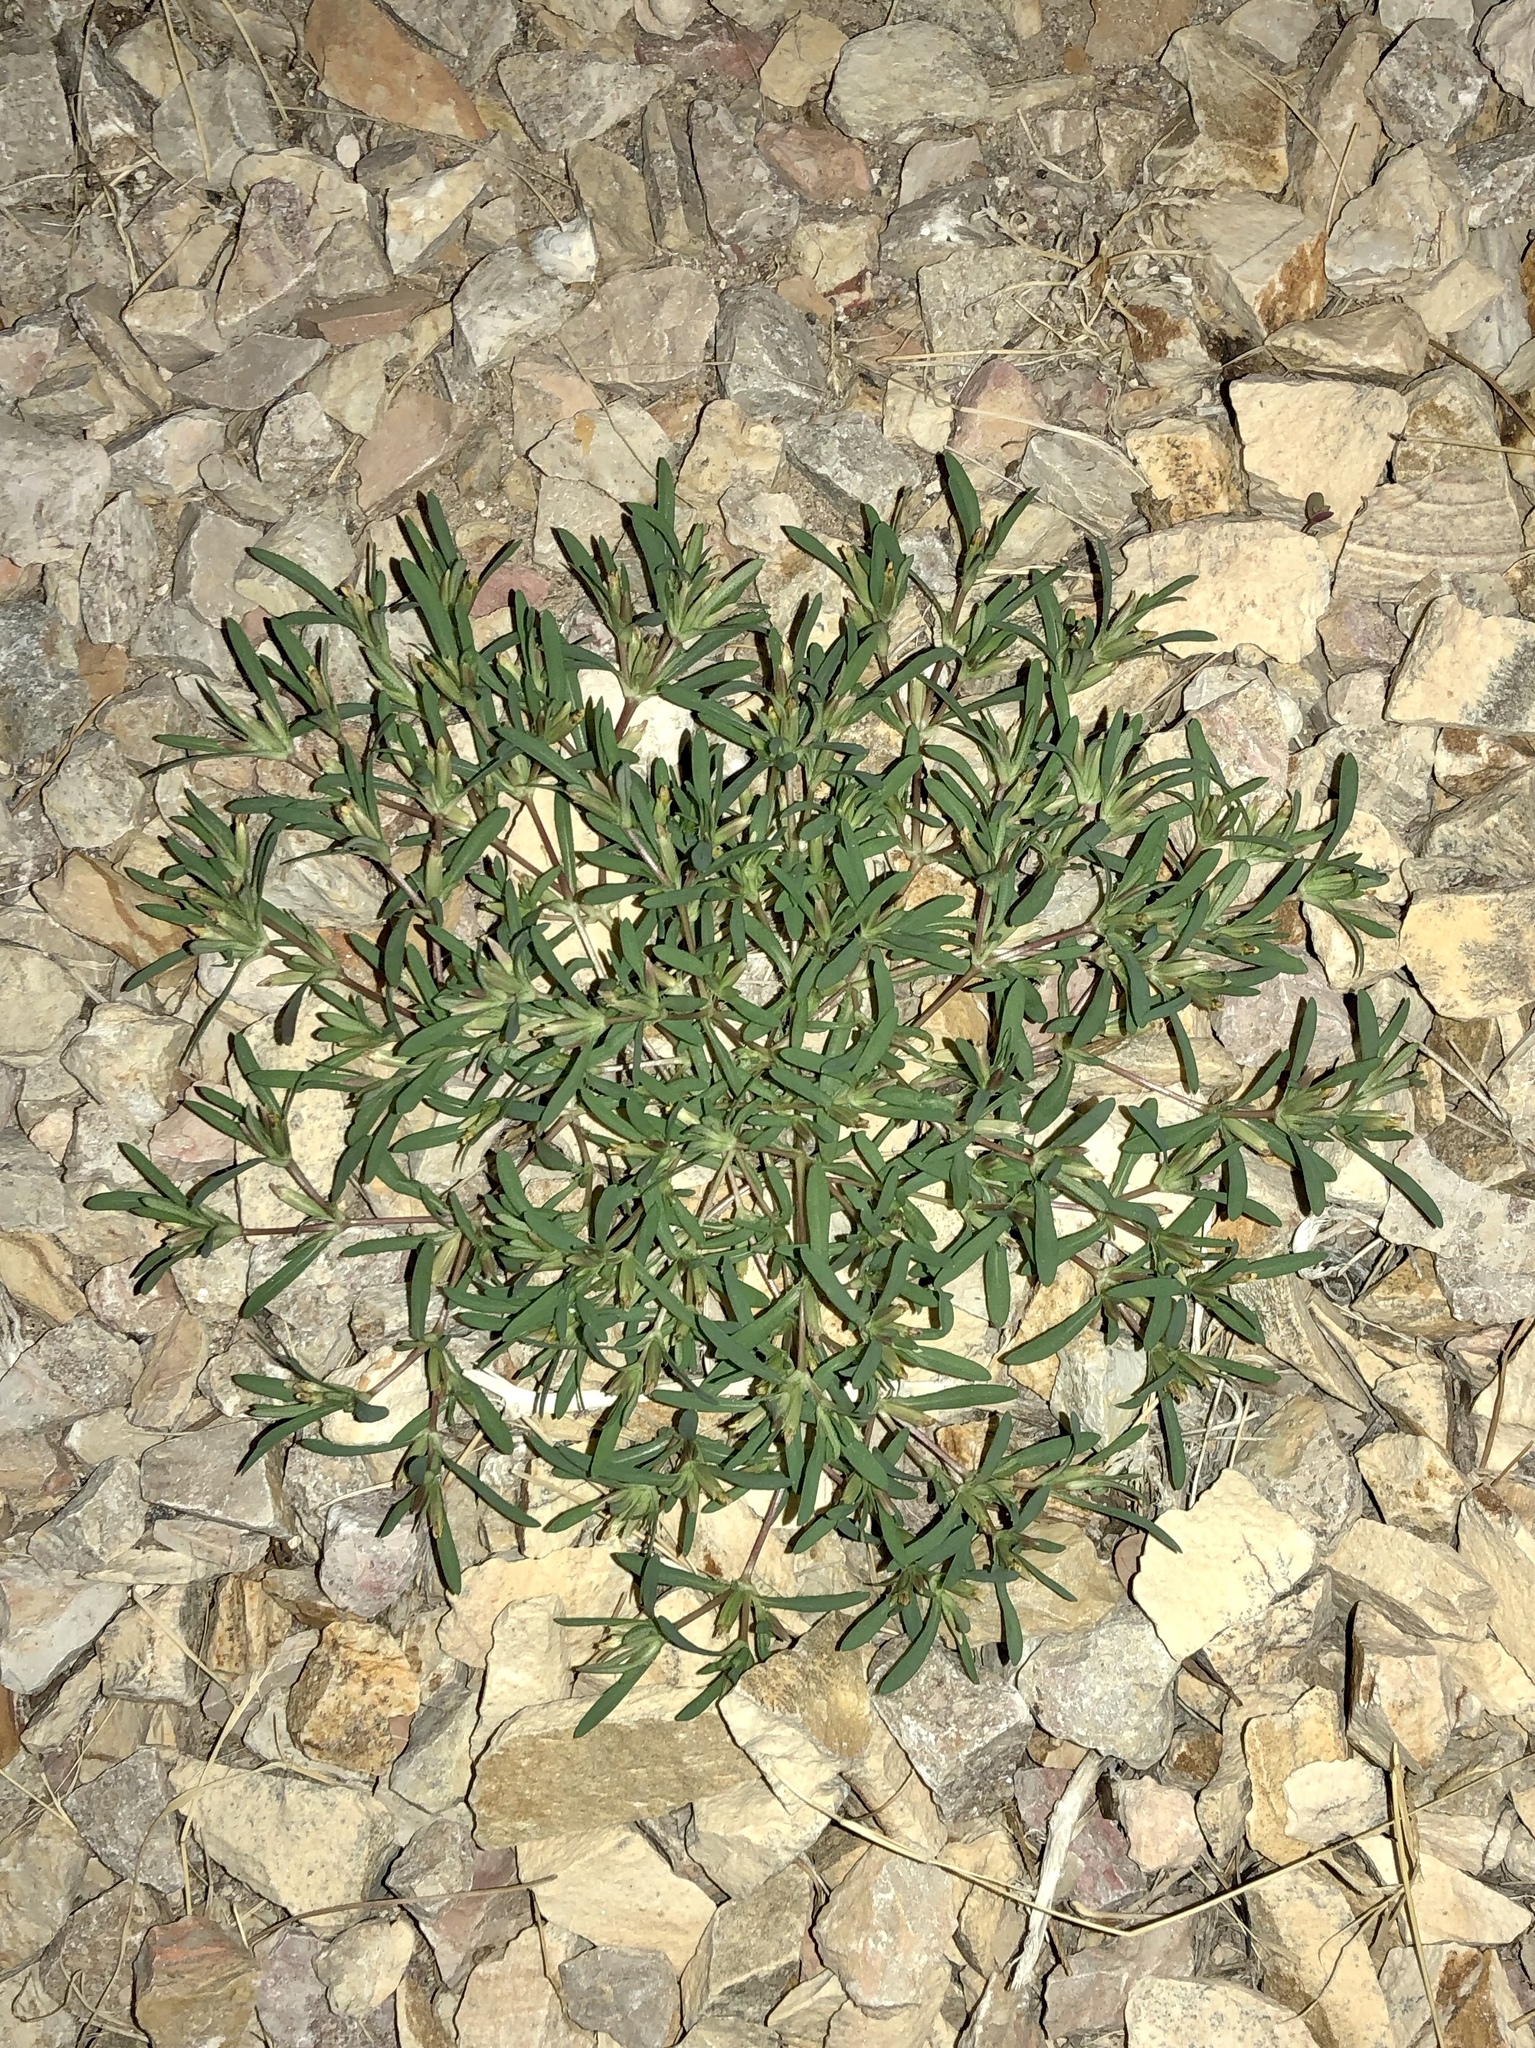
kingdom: Plantae
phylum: Tracheophyta
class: Magnoliopsida
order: Asterales
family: Asteraceae
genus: Pectis
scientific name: Pectis prostrata
